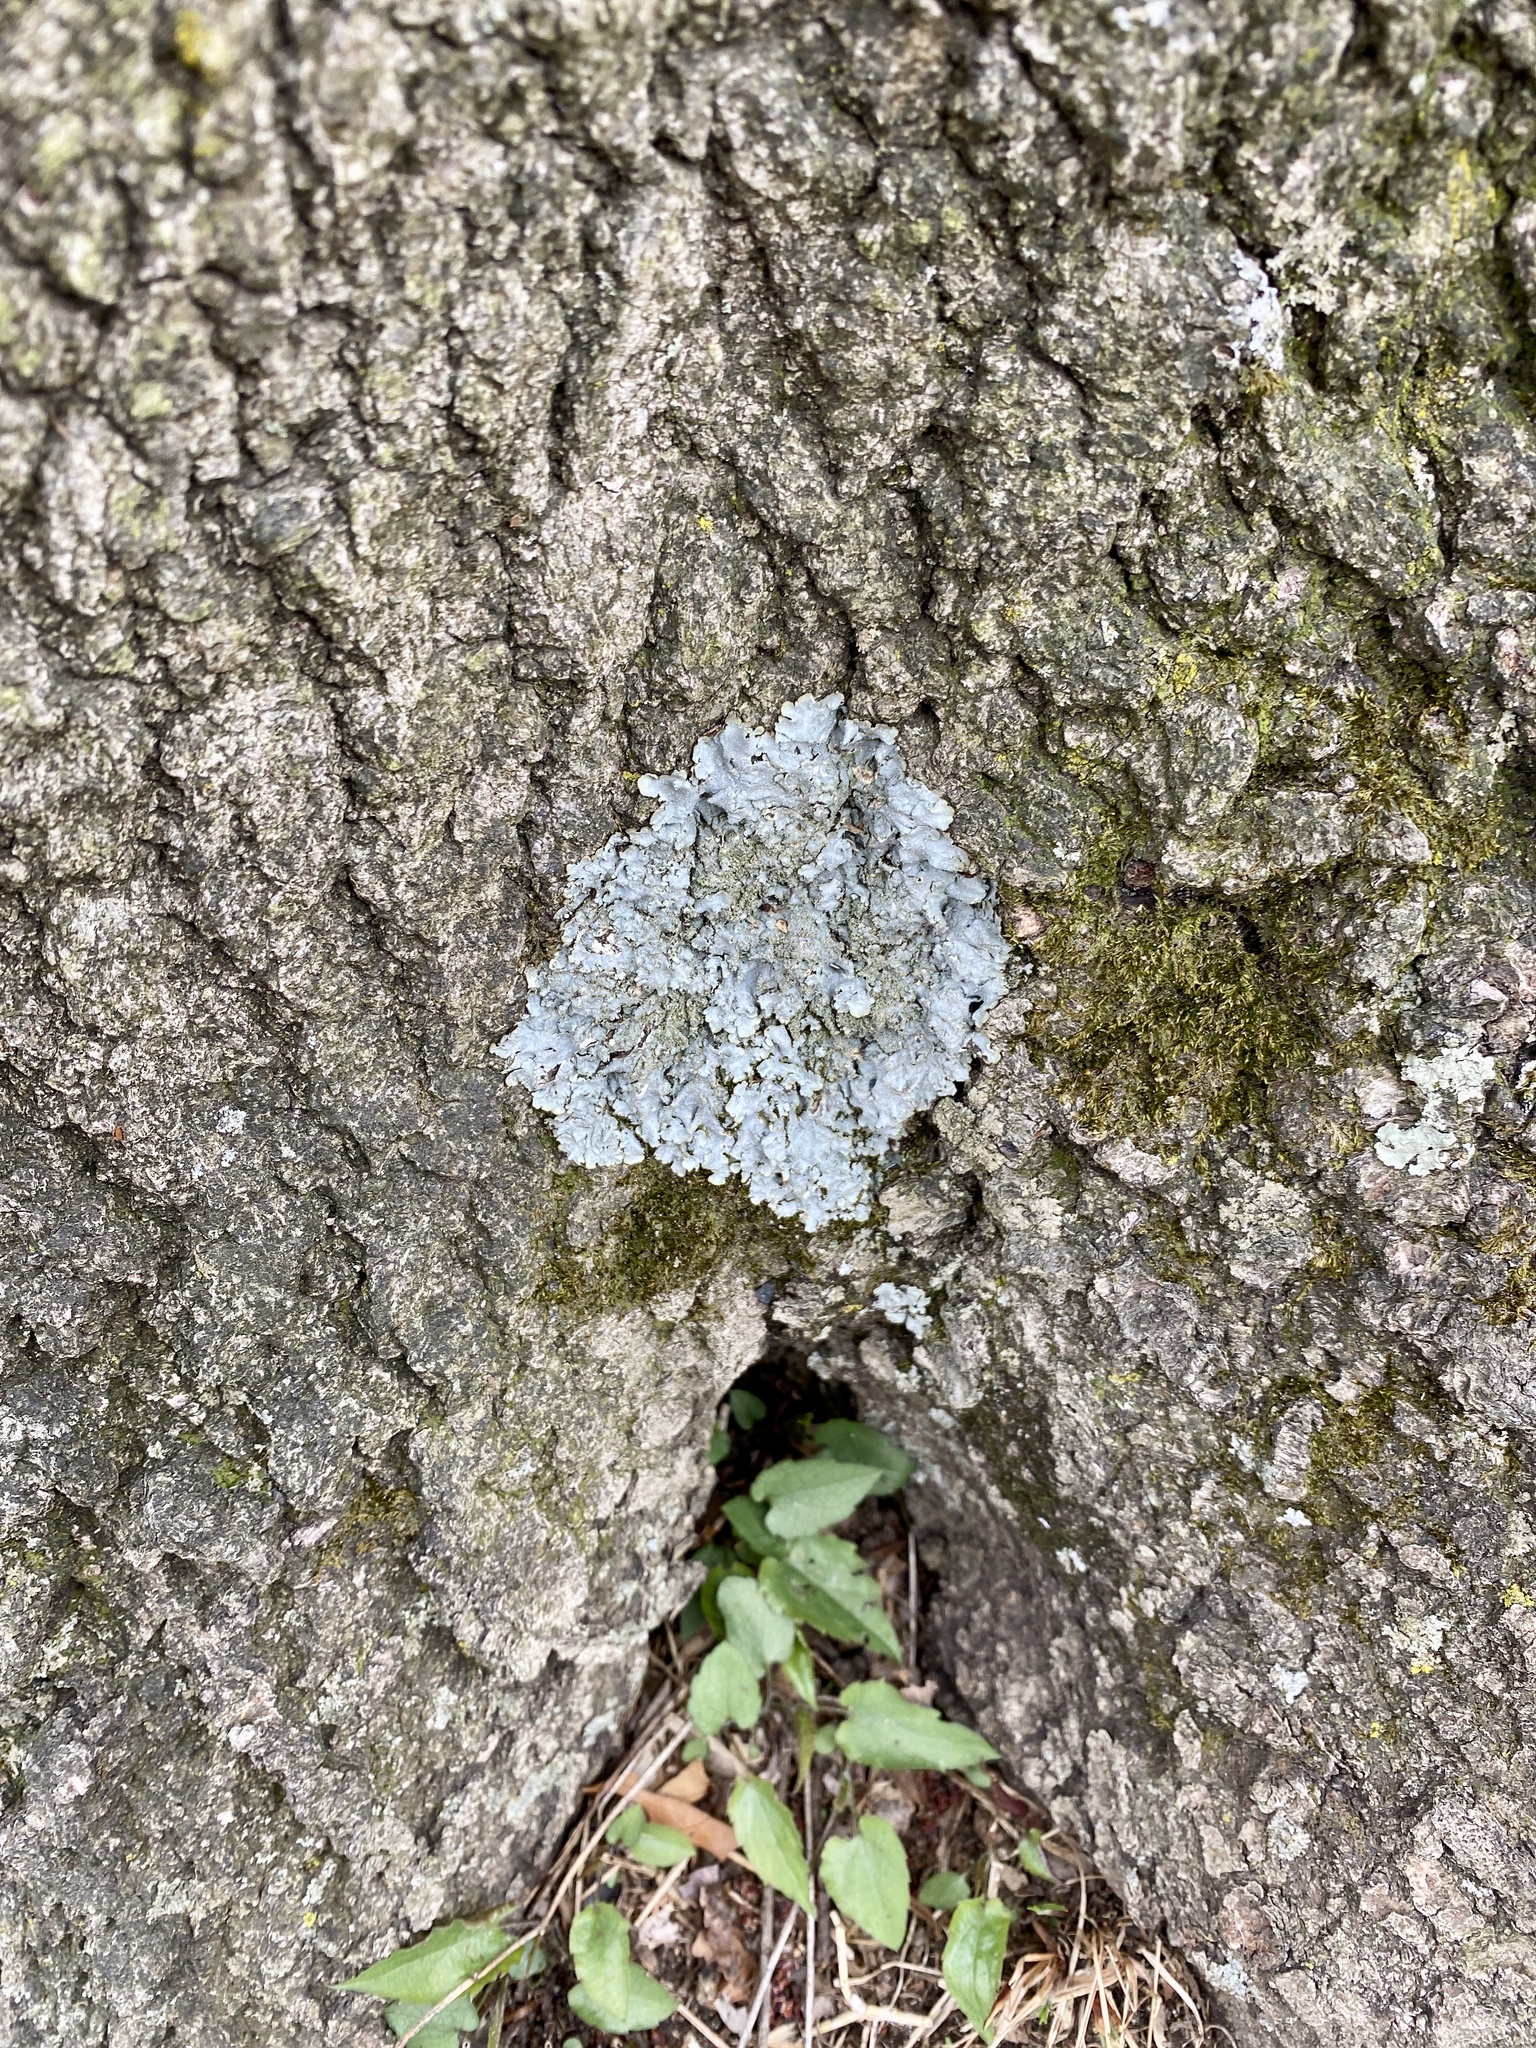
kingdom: Fungi
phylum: Ascomycota
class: Lecanoromycetes
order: Lecanorales
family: Parmeliaceae
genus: Punctelia
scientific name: Punctelia rudecta
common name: Rough speckled shield lichen
